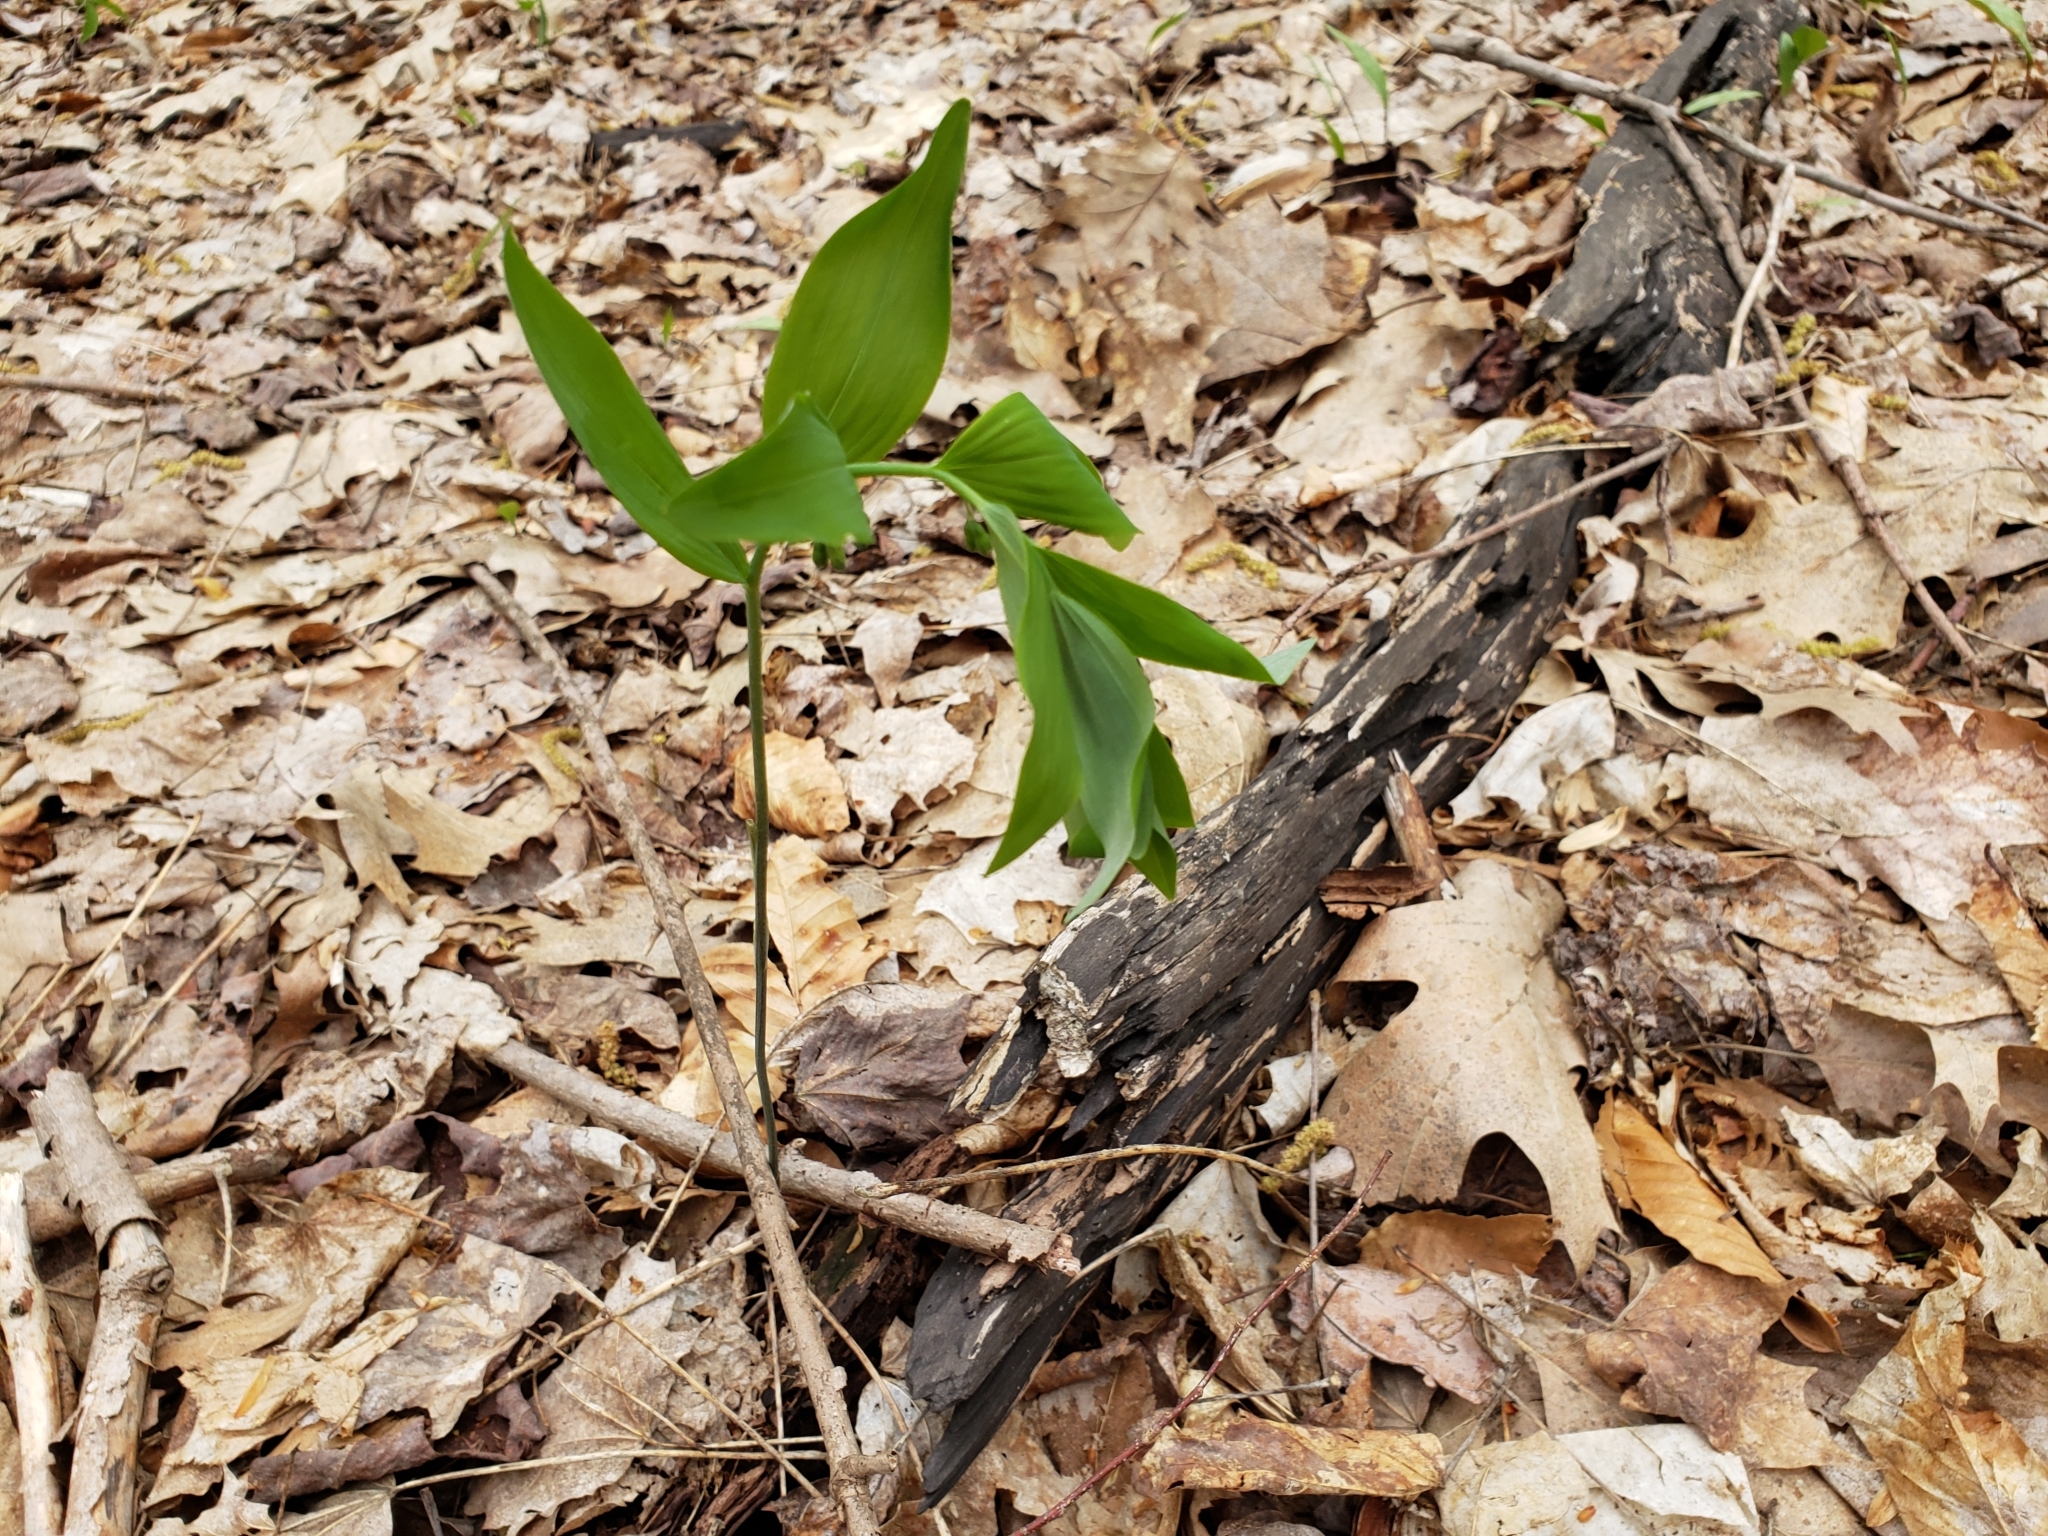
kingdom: Plantae
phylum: Tracheophyta
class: Liliopsida
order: Asparagales
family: Asparagaceae
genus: Polygonatum
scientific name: Polygonatum pubescens
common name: Downy solomon's seal
